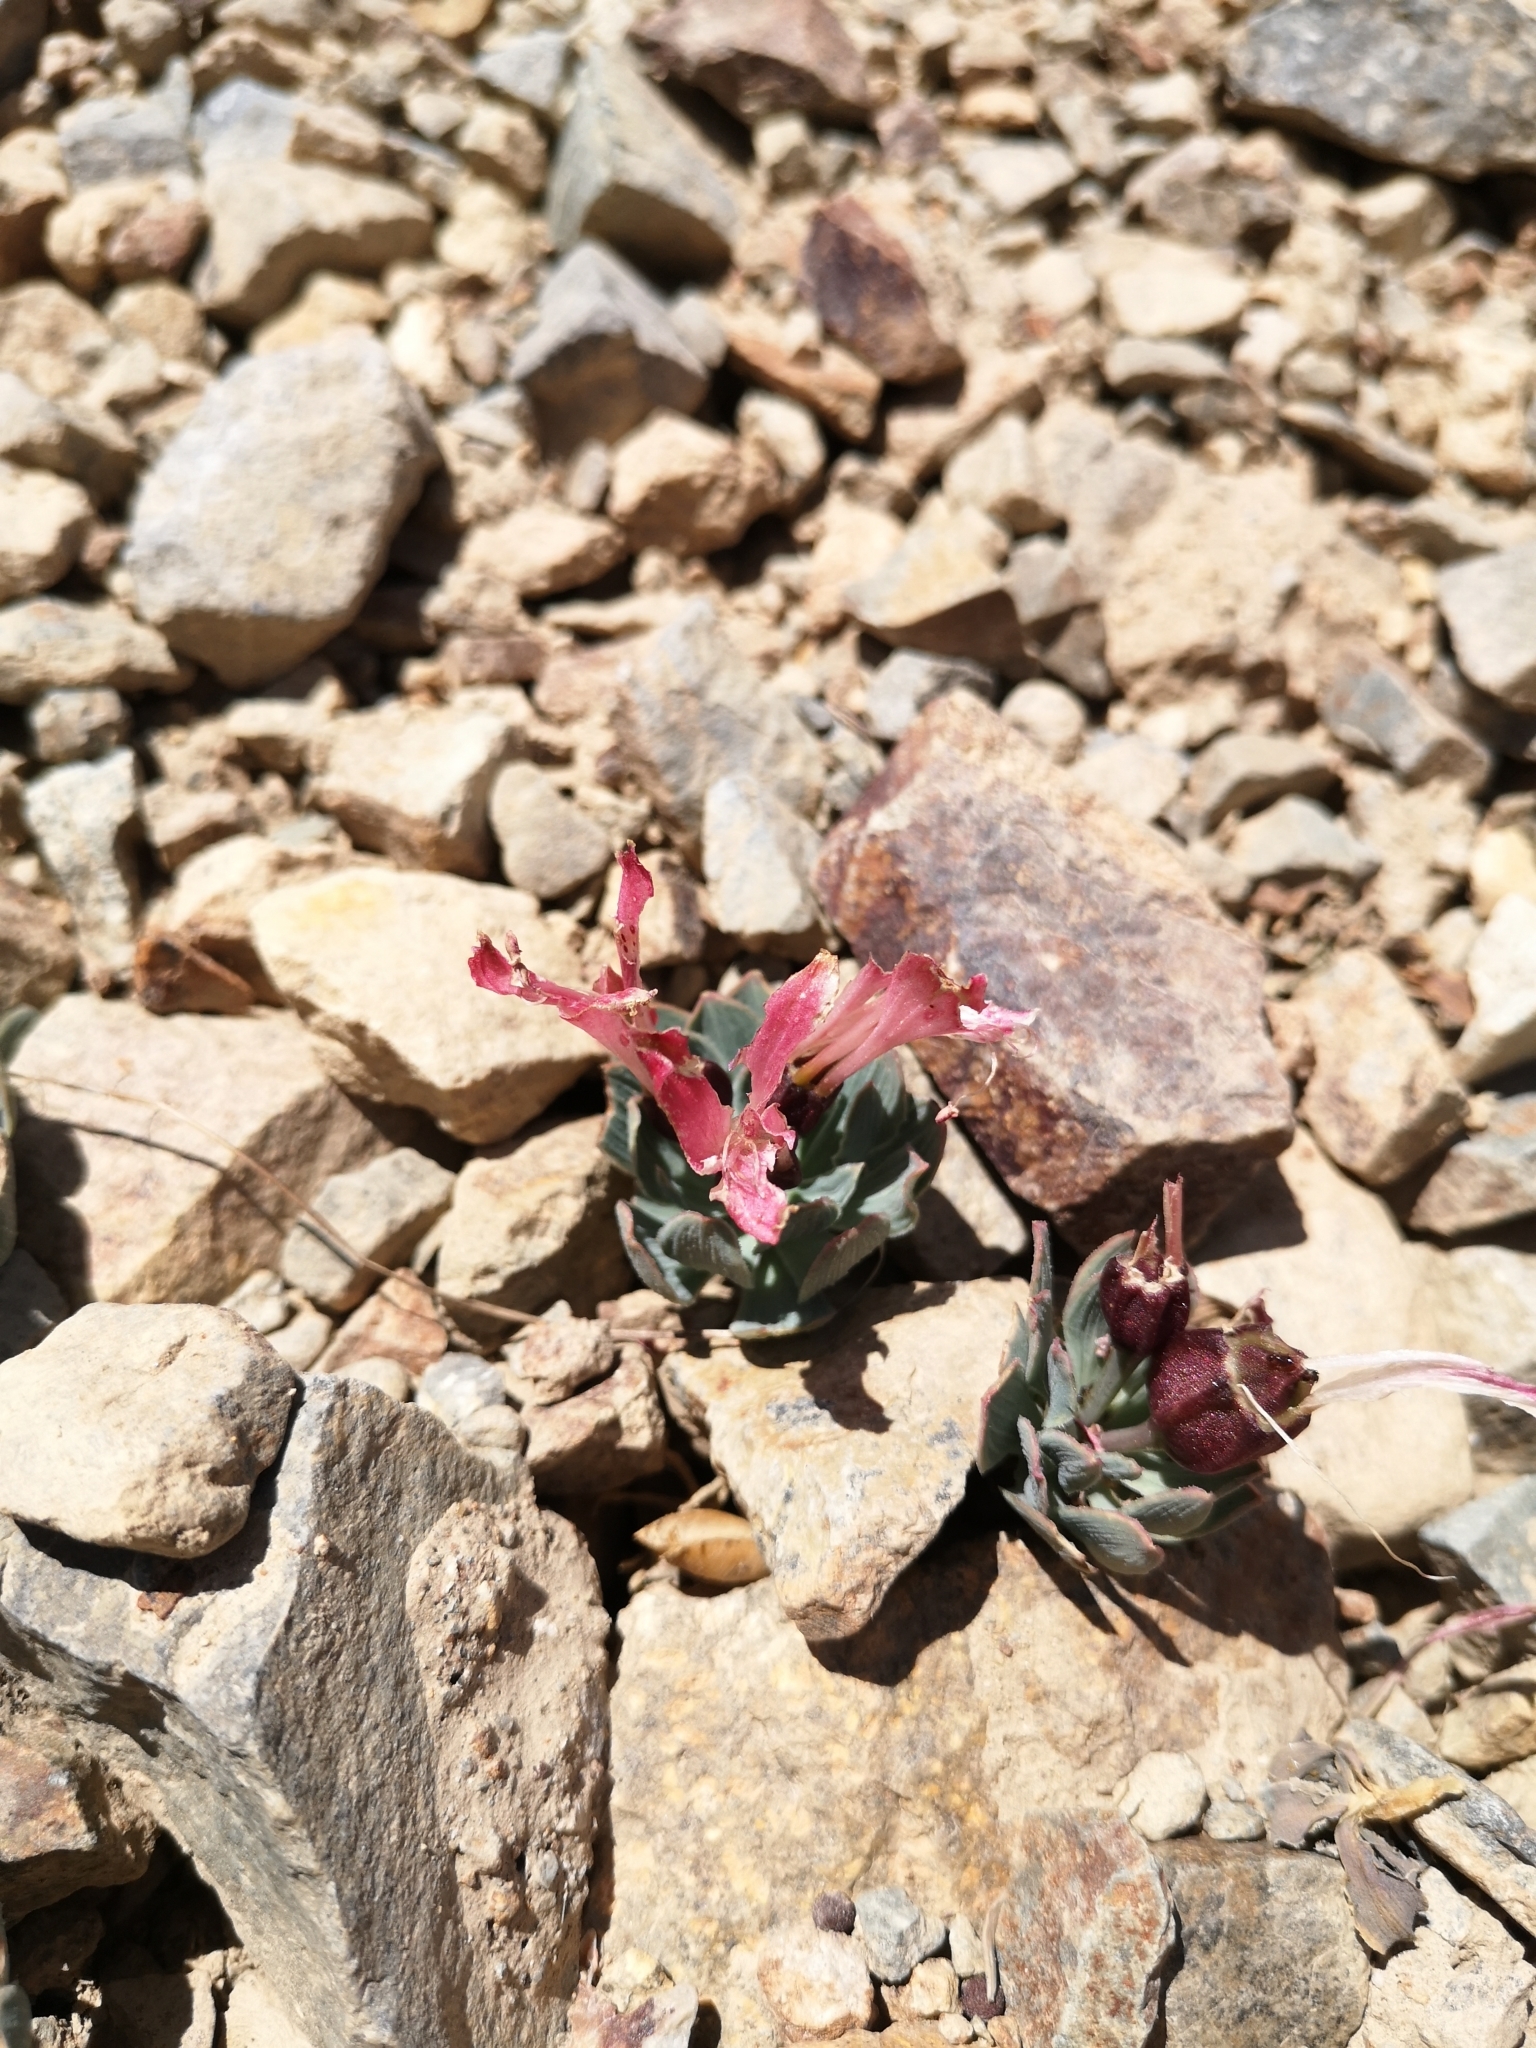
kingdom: Plantae
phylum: Tracheophyta
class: Liliopsida
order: Liliales
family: Alstroemeriaceae
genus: Alstroemeria
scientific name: Alstroemeria spathulata
